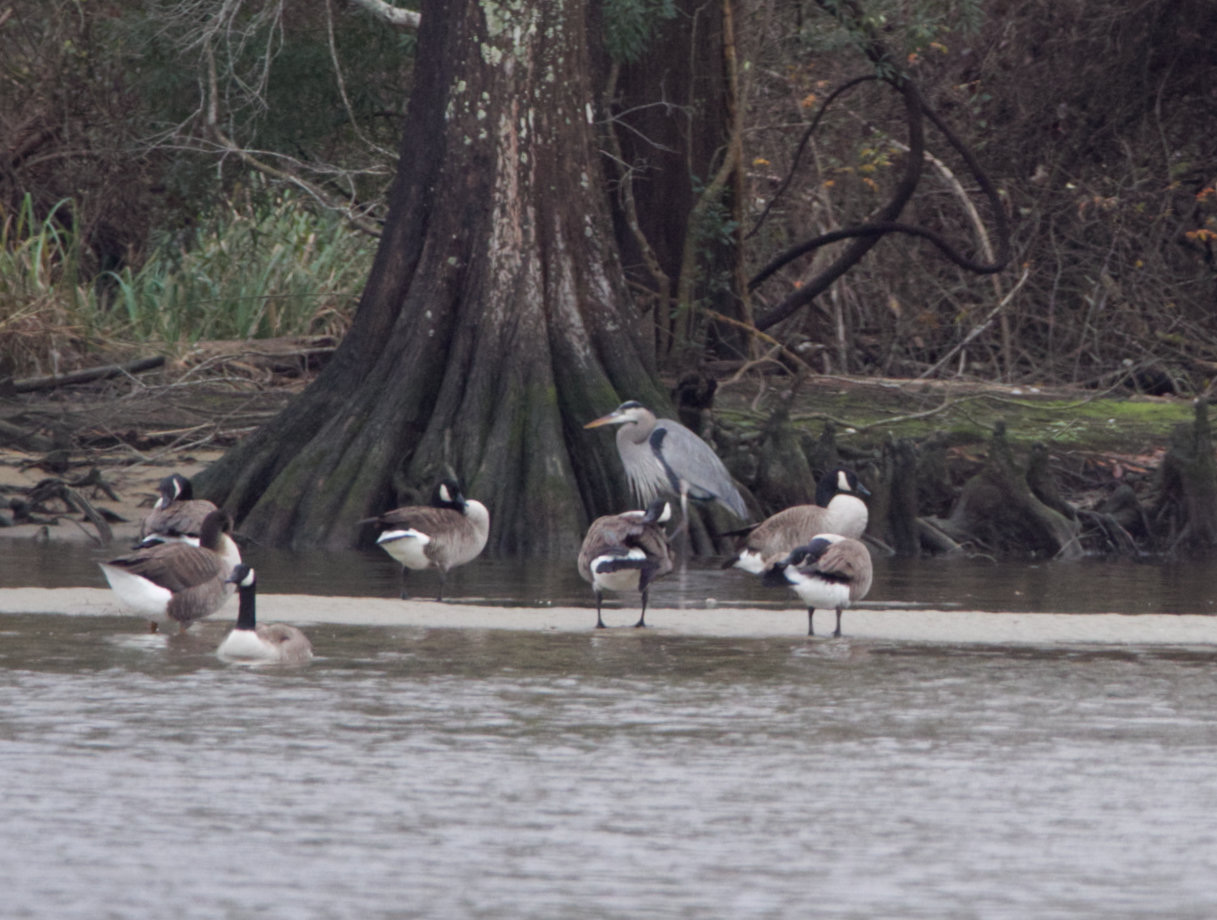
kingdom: Animalia
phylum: Chordata
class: Aves
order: Pelecaniformes
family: Ardeidae
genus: Ardea
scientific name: Ardea herodias
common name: Great blue heron
